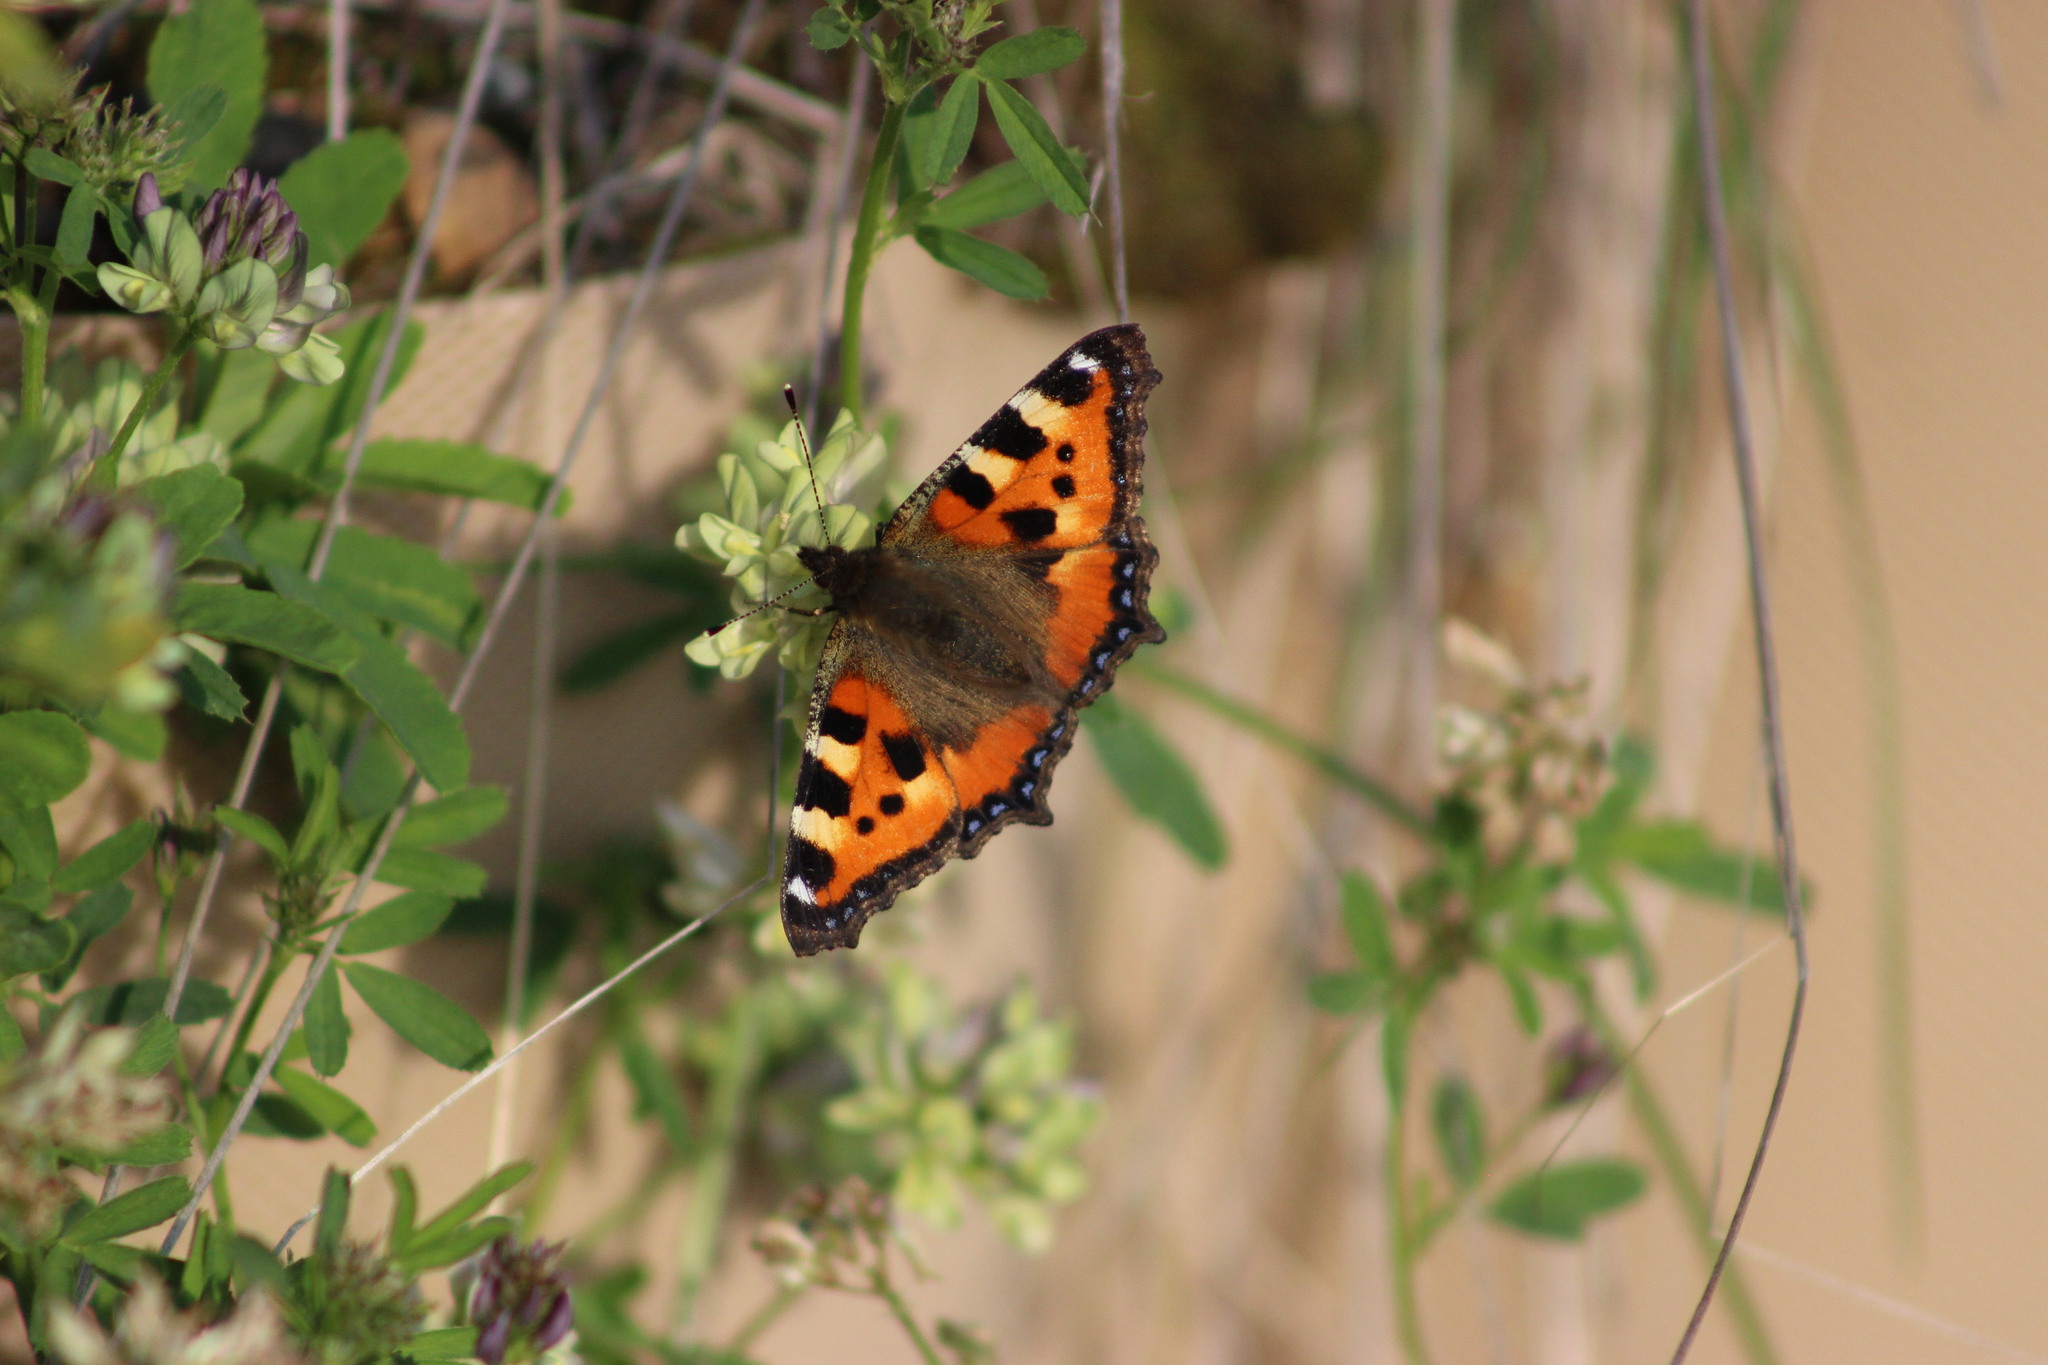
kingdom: Animalia
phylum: Arthropoda
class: Insecta
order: Lepidoptera
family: Nymphalidae
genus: Aglais
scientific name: Aglais urticae
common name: Small tortoiseshell
